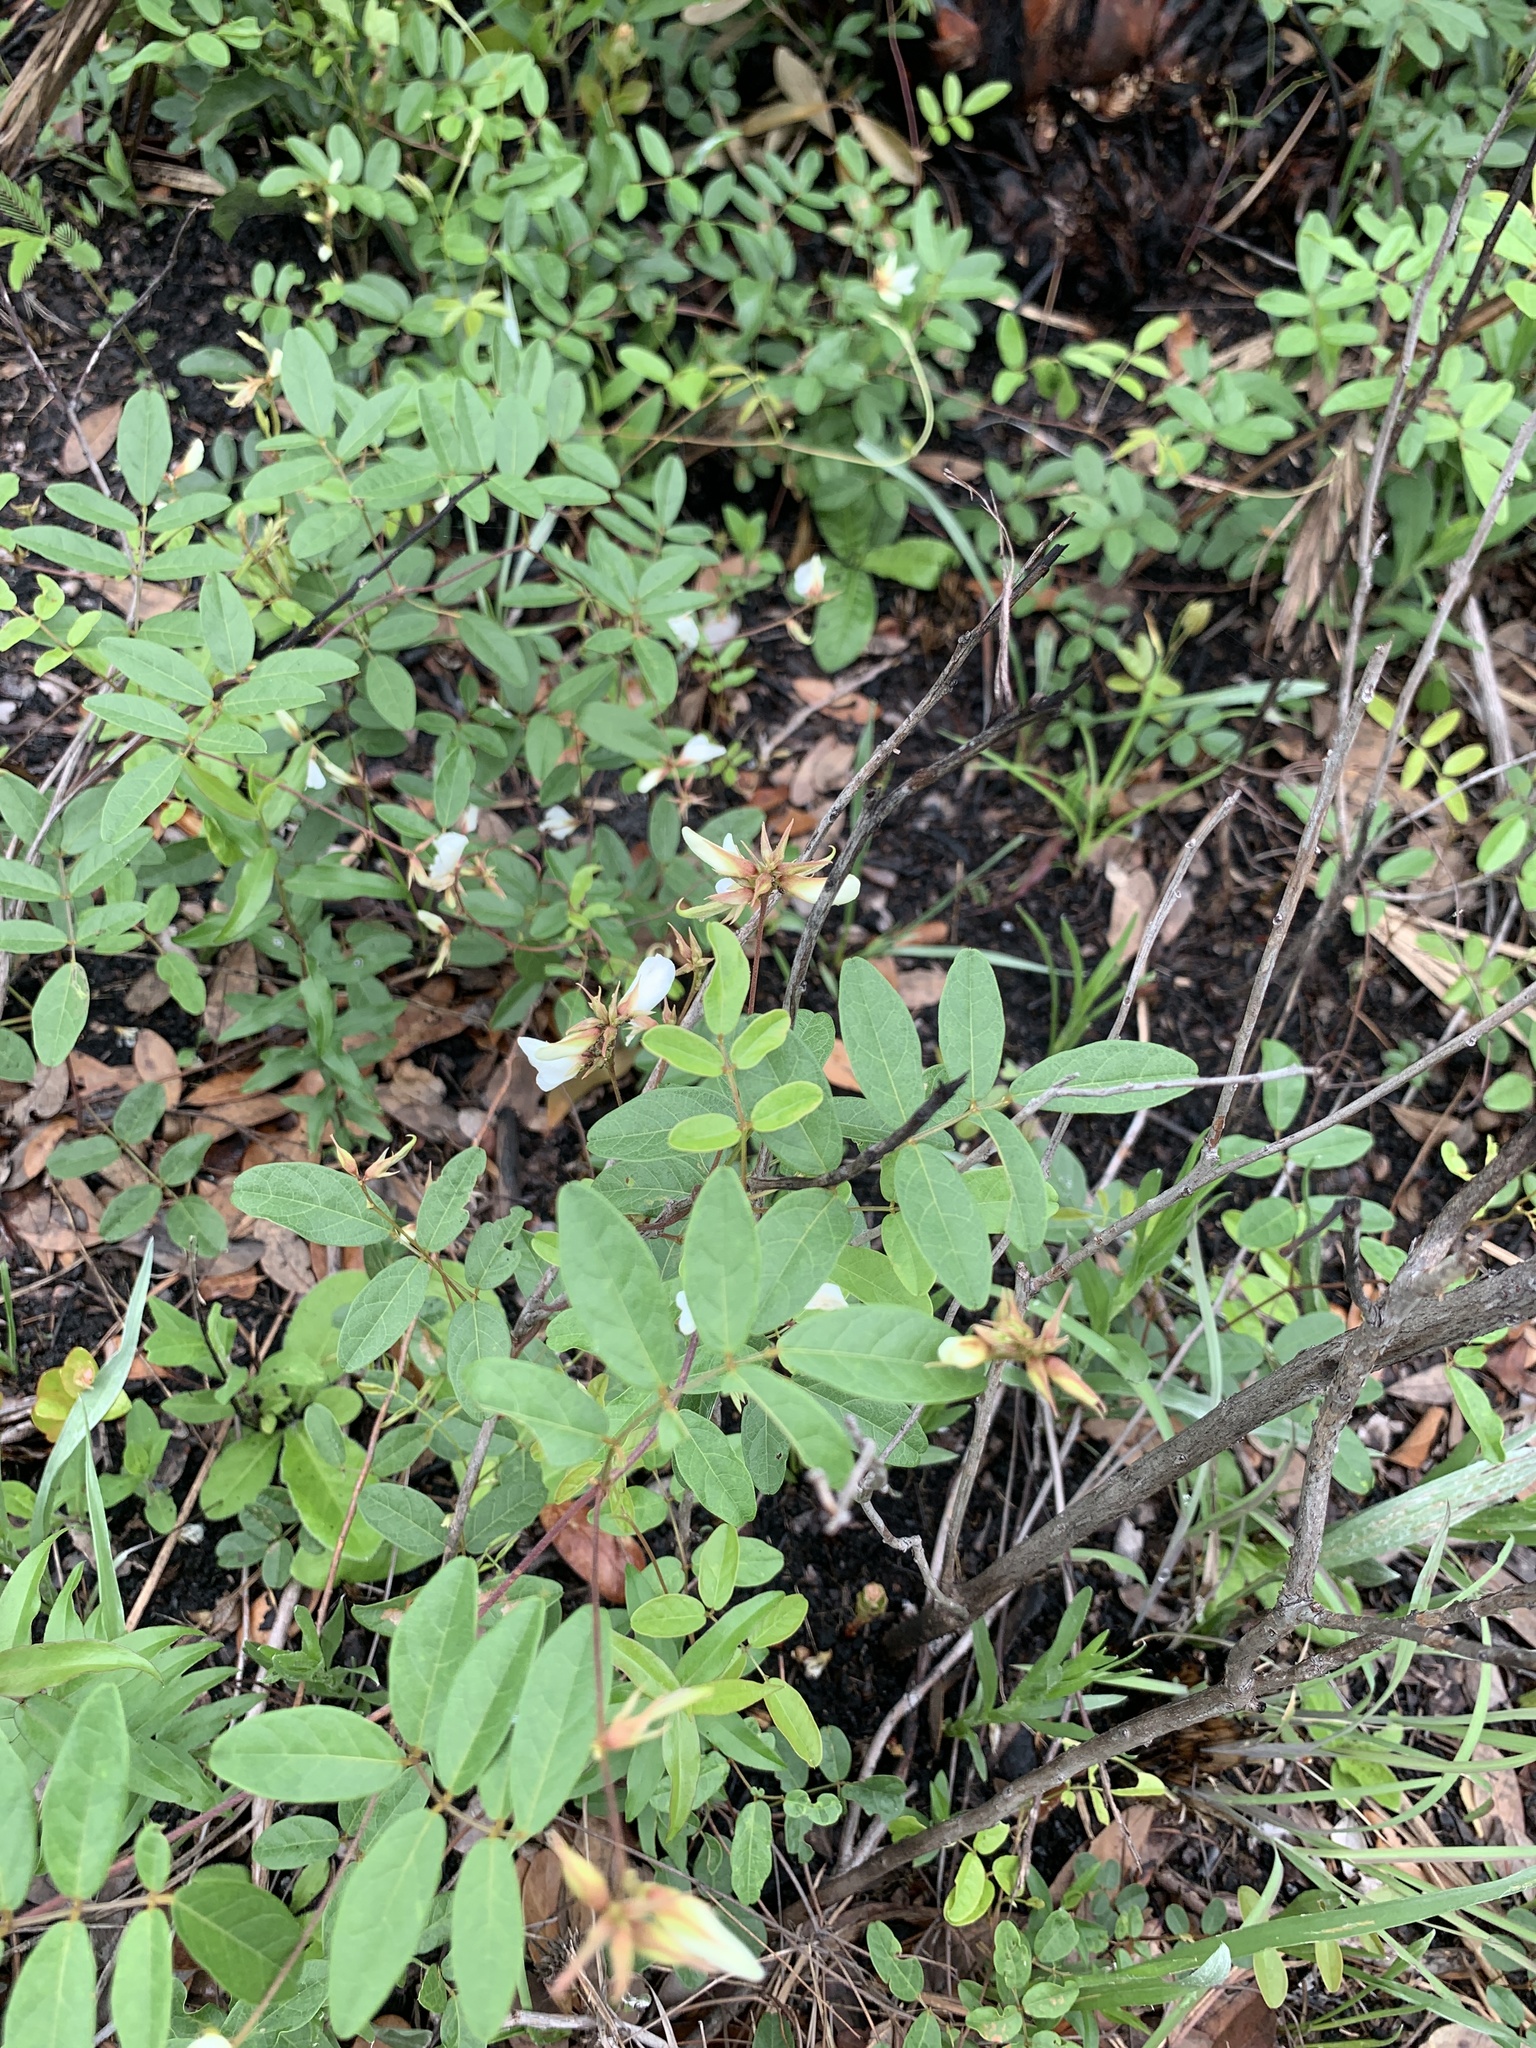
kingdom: Plantae
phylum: Tracheophyta
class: Magnoliopsida
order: Fabales
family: Fabaceae
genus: Galactia
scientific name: Galactia elliottii
